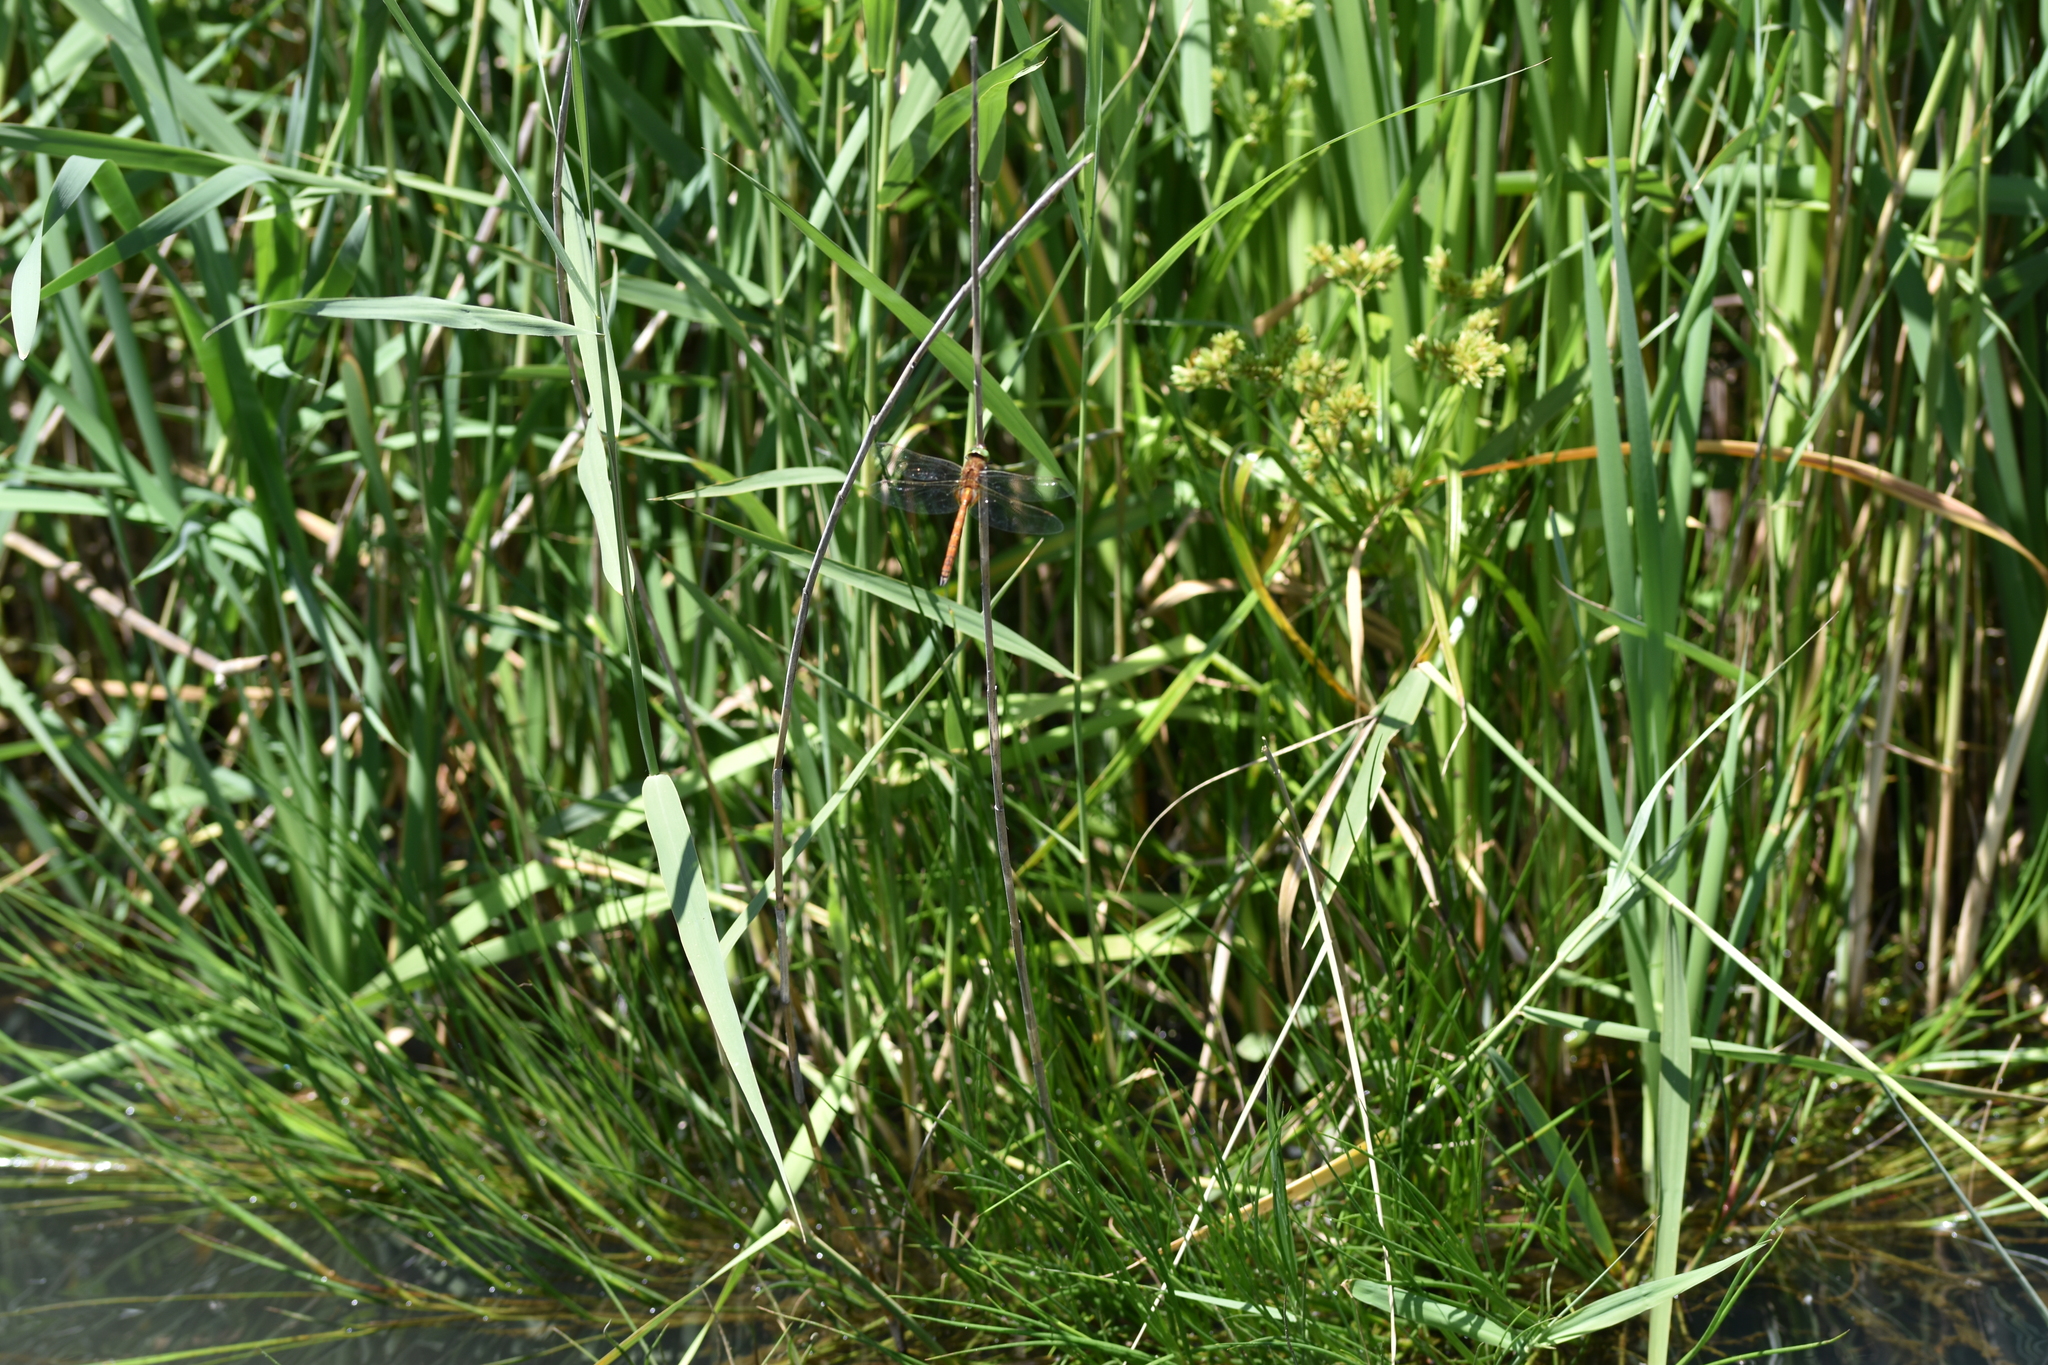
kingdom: Animalia
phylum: Arthropoda
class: Insecta
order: Odonata
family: Aeshnidae
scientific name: Aeshnidae
